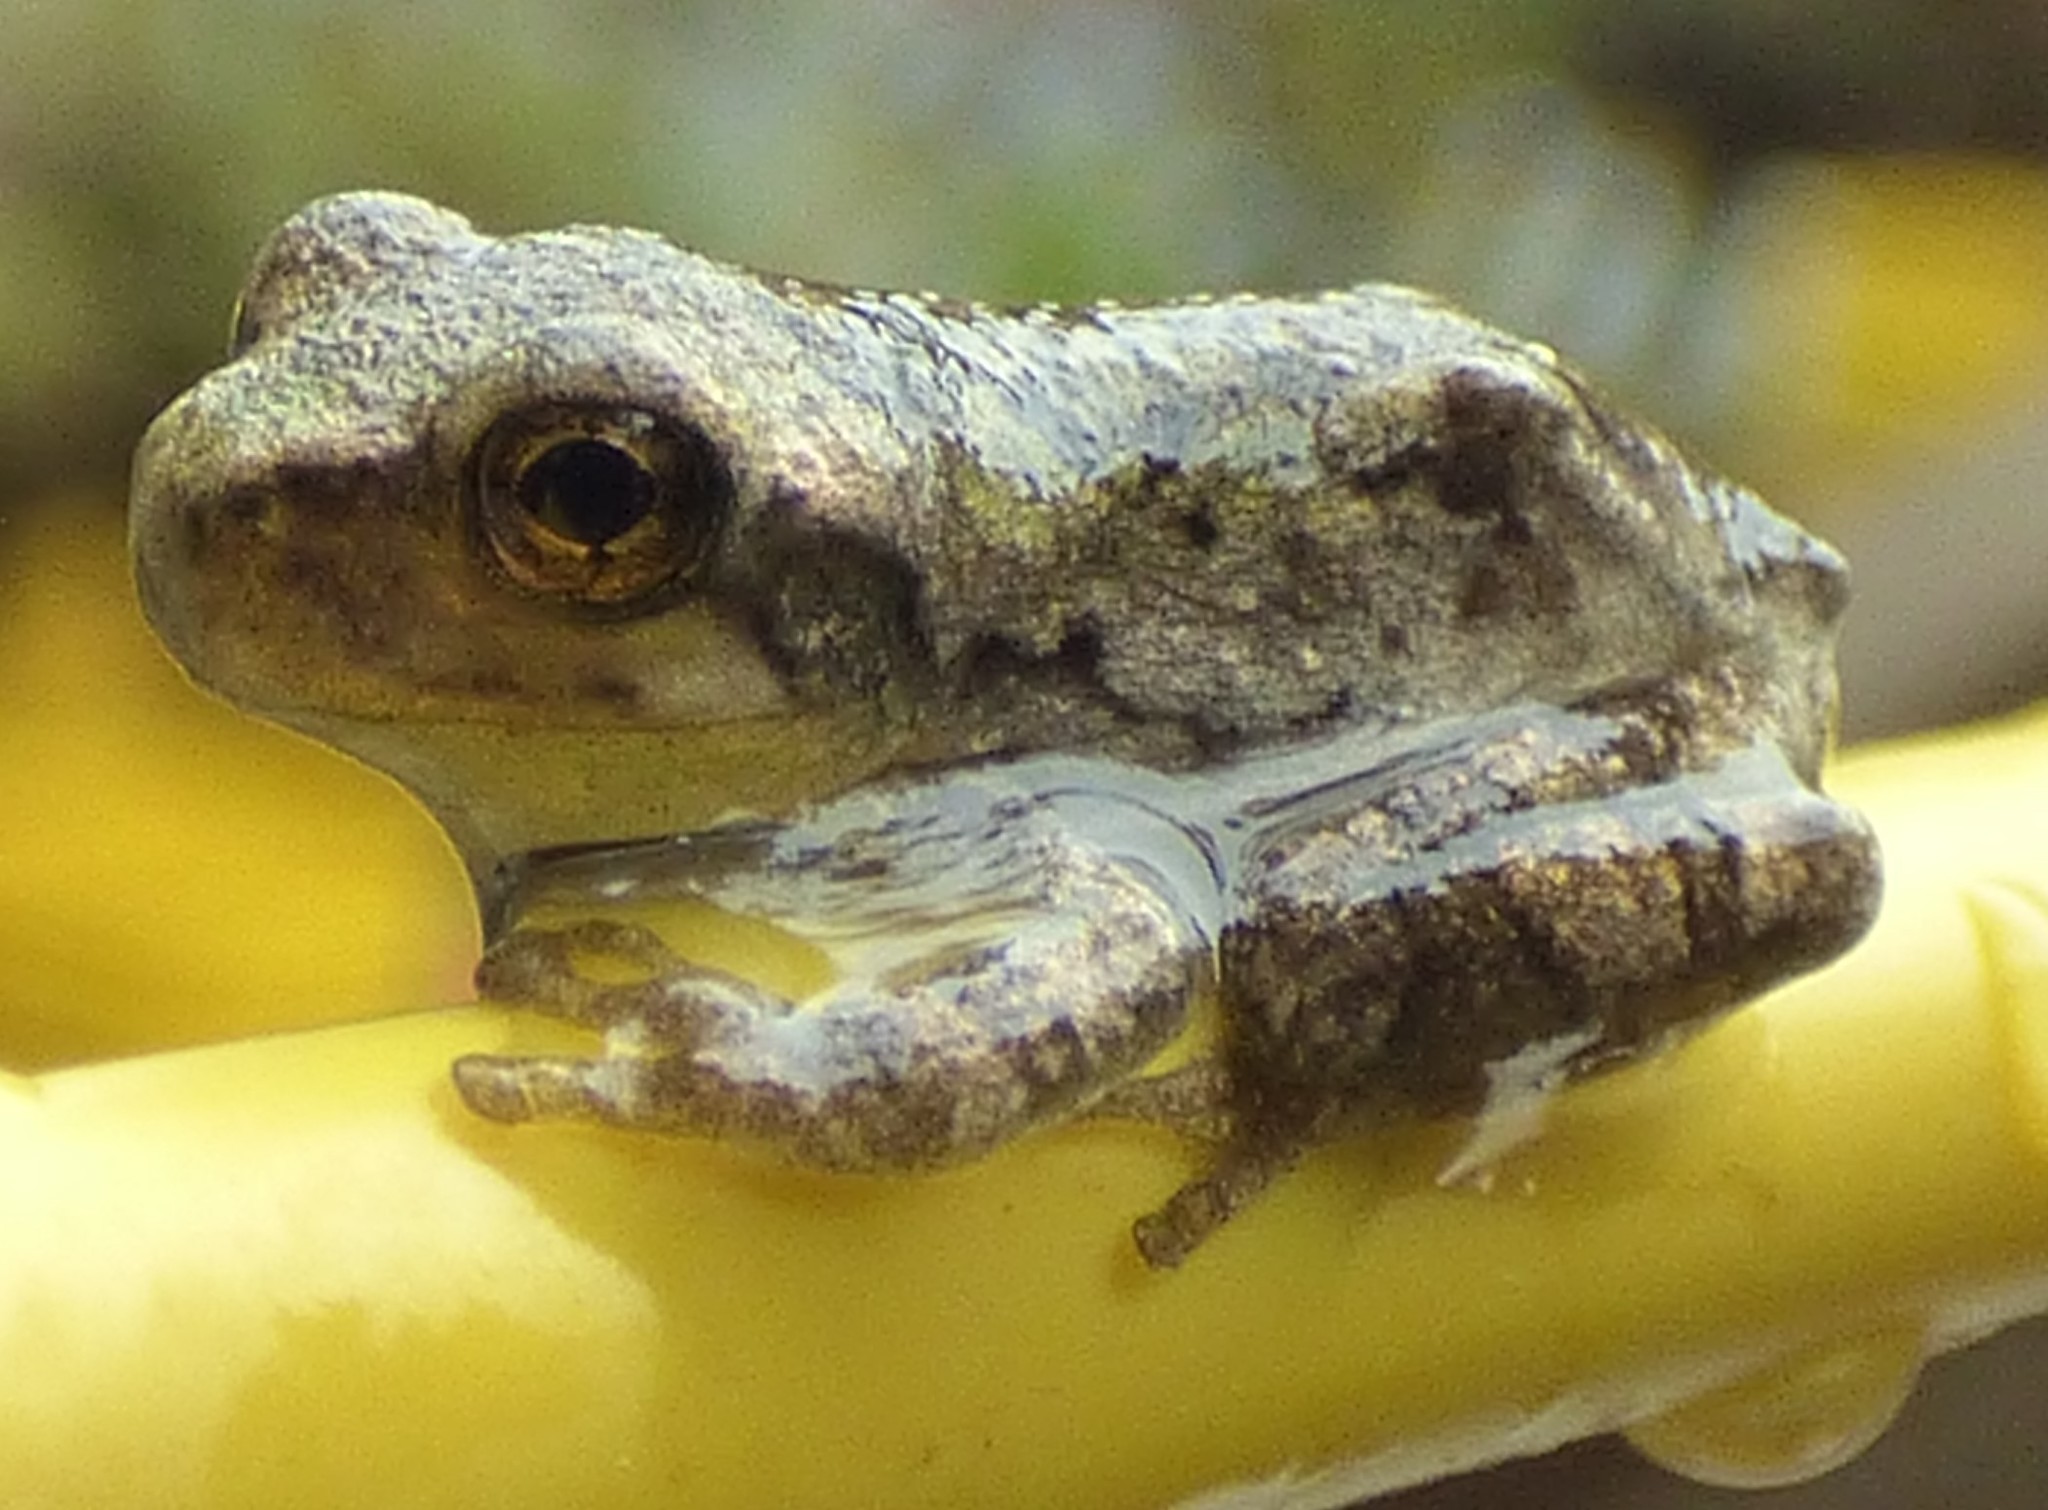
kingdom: Animalia
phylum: Chordata
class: Amphibia
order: Anura
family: Hylidae
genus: Dryophytes
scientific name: Dryophytes chrysoscelis
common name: Cope's gray treefrog
